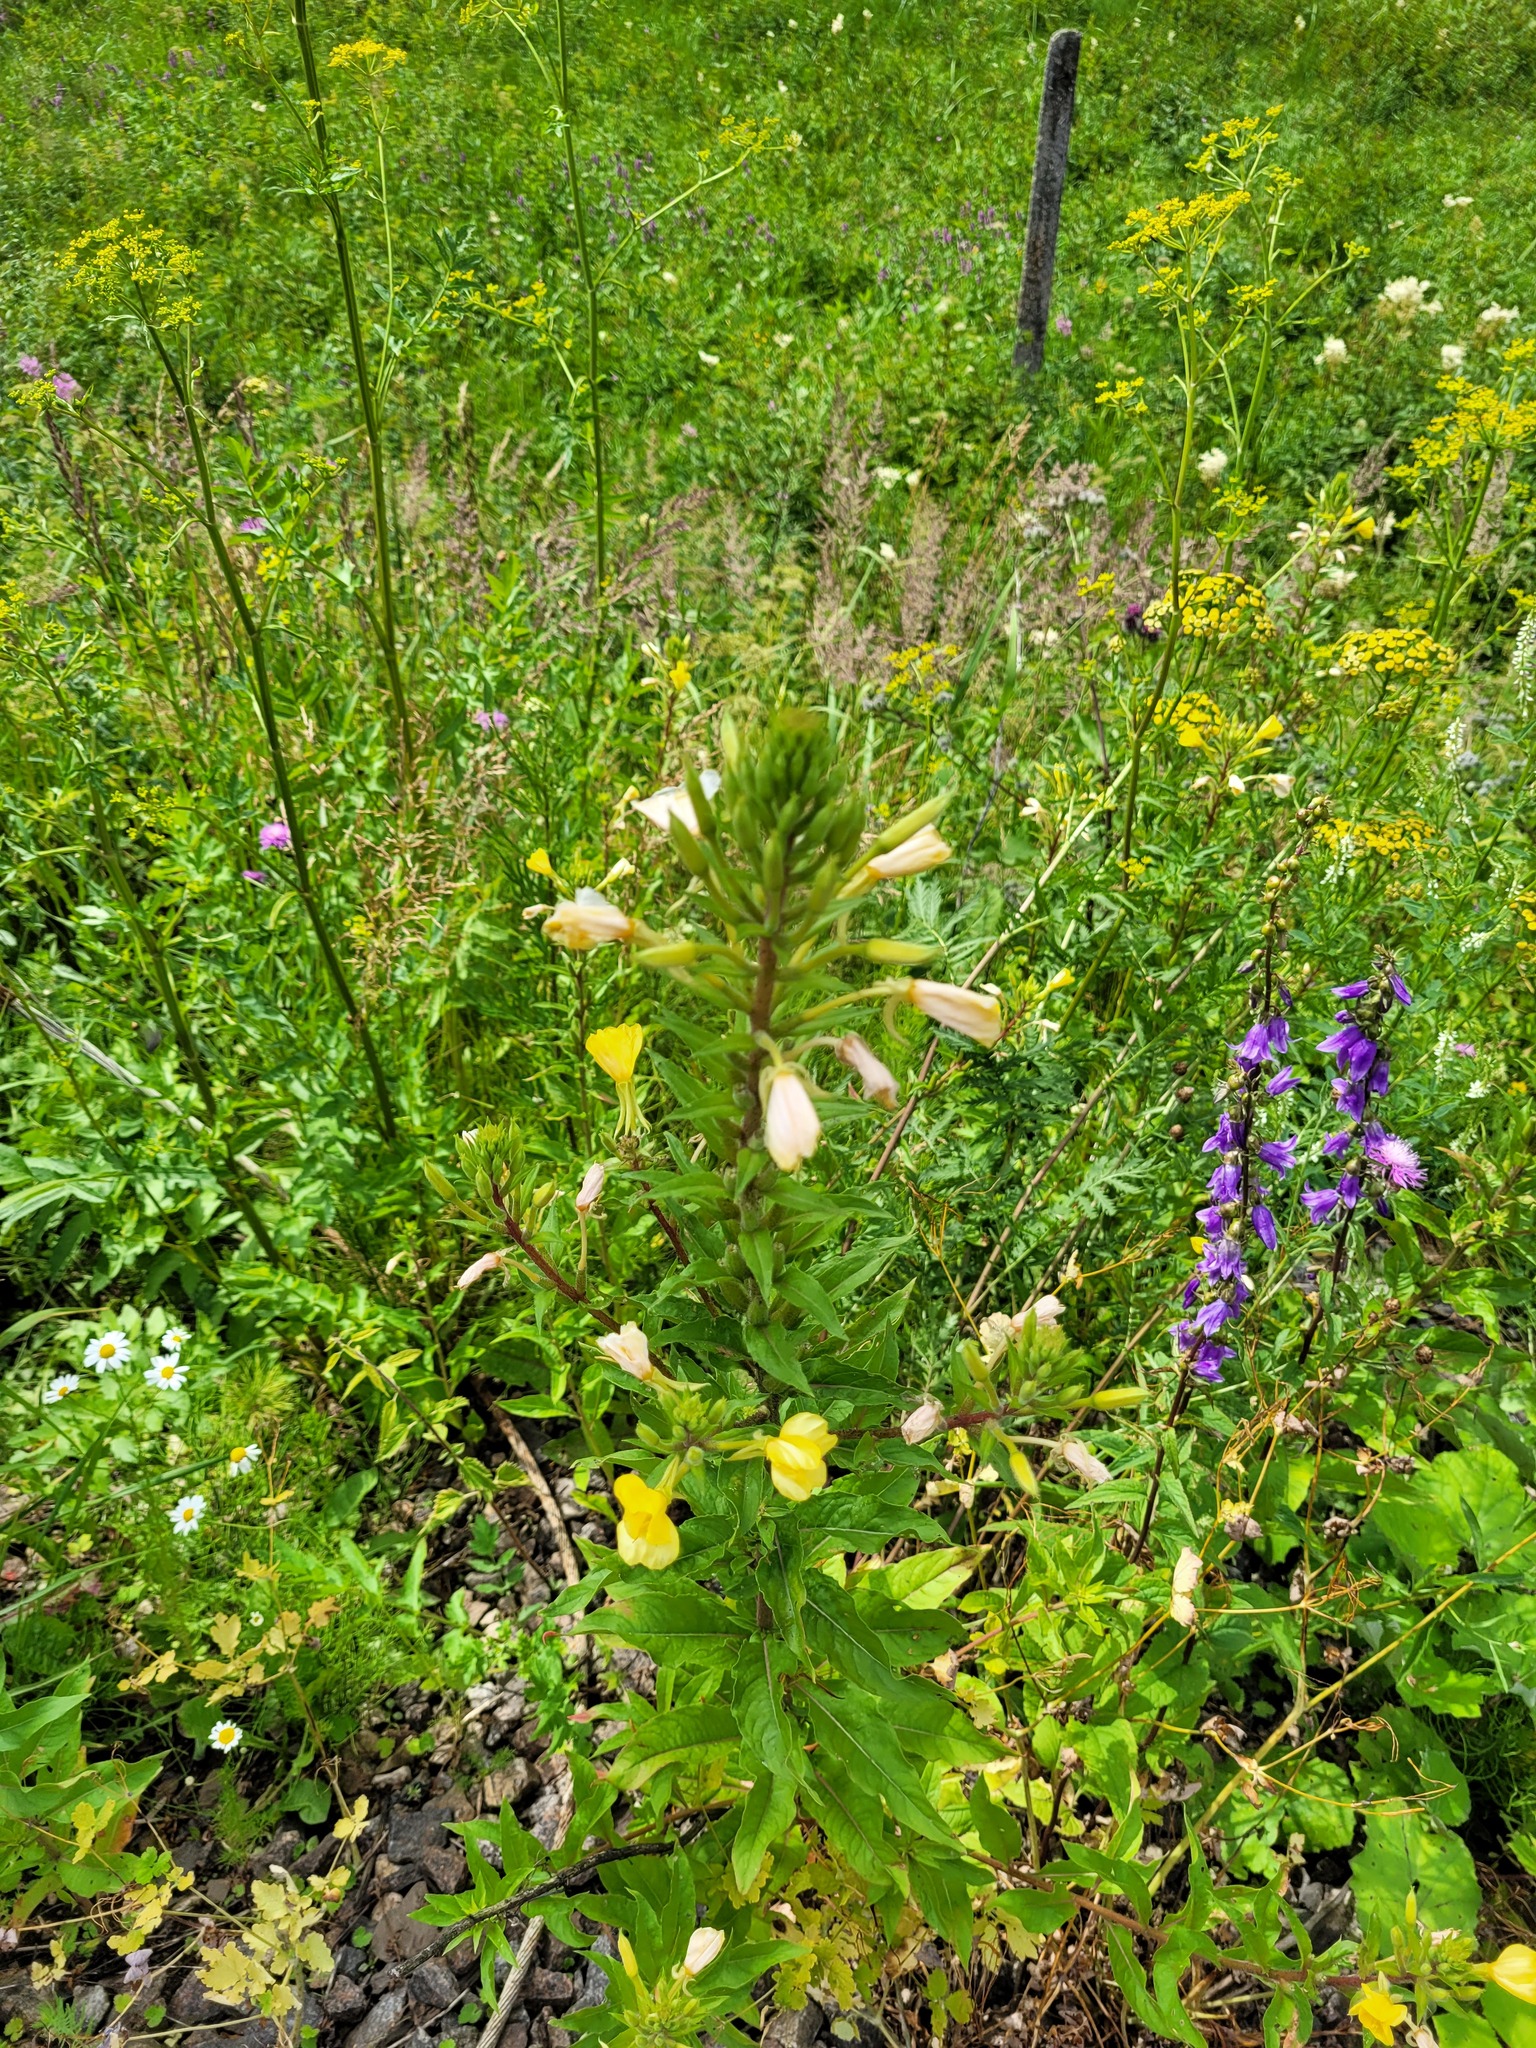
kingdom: Plantae
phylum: Tracheophyta
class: Magnoliopsida
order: Myrtales
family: Onagraceae
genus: Oenothera
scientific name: Oenothera rubricaulis
